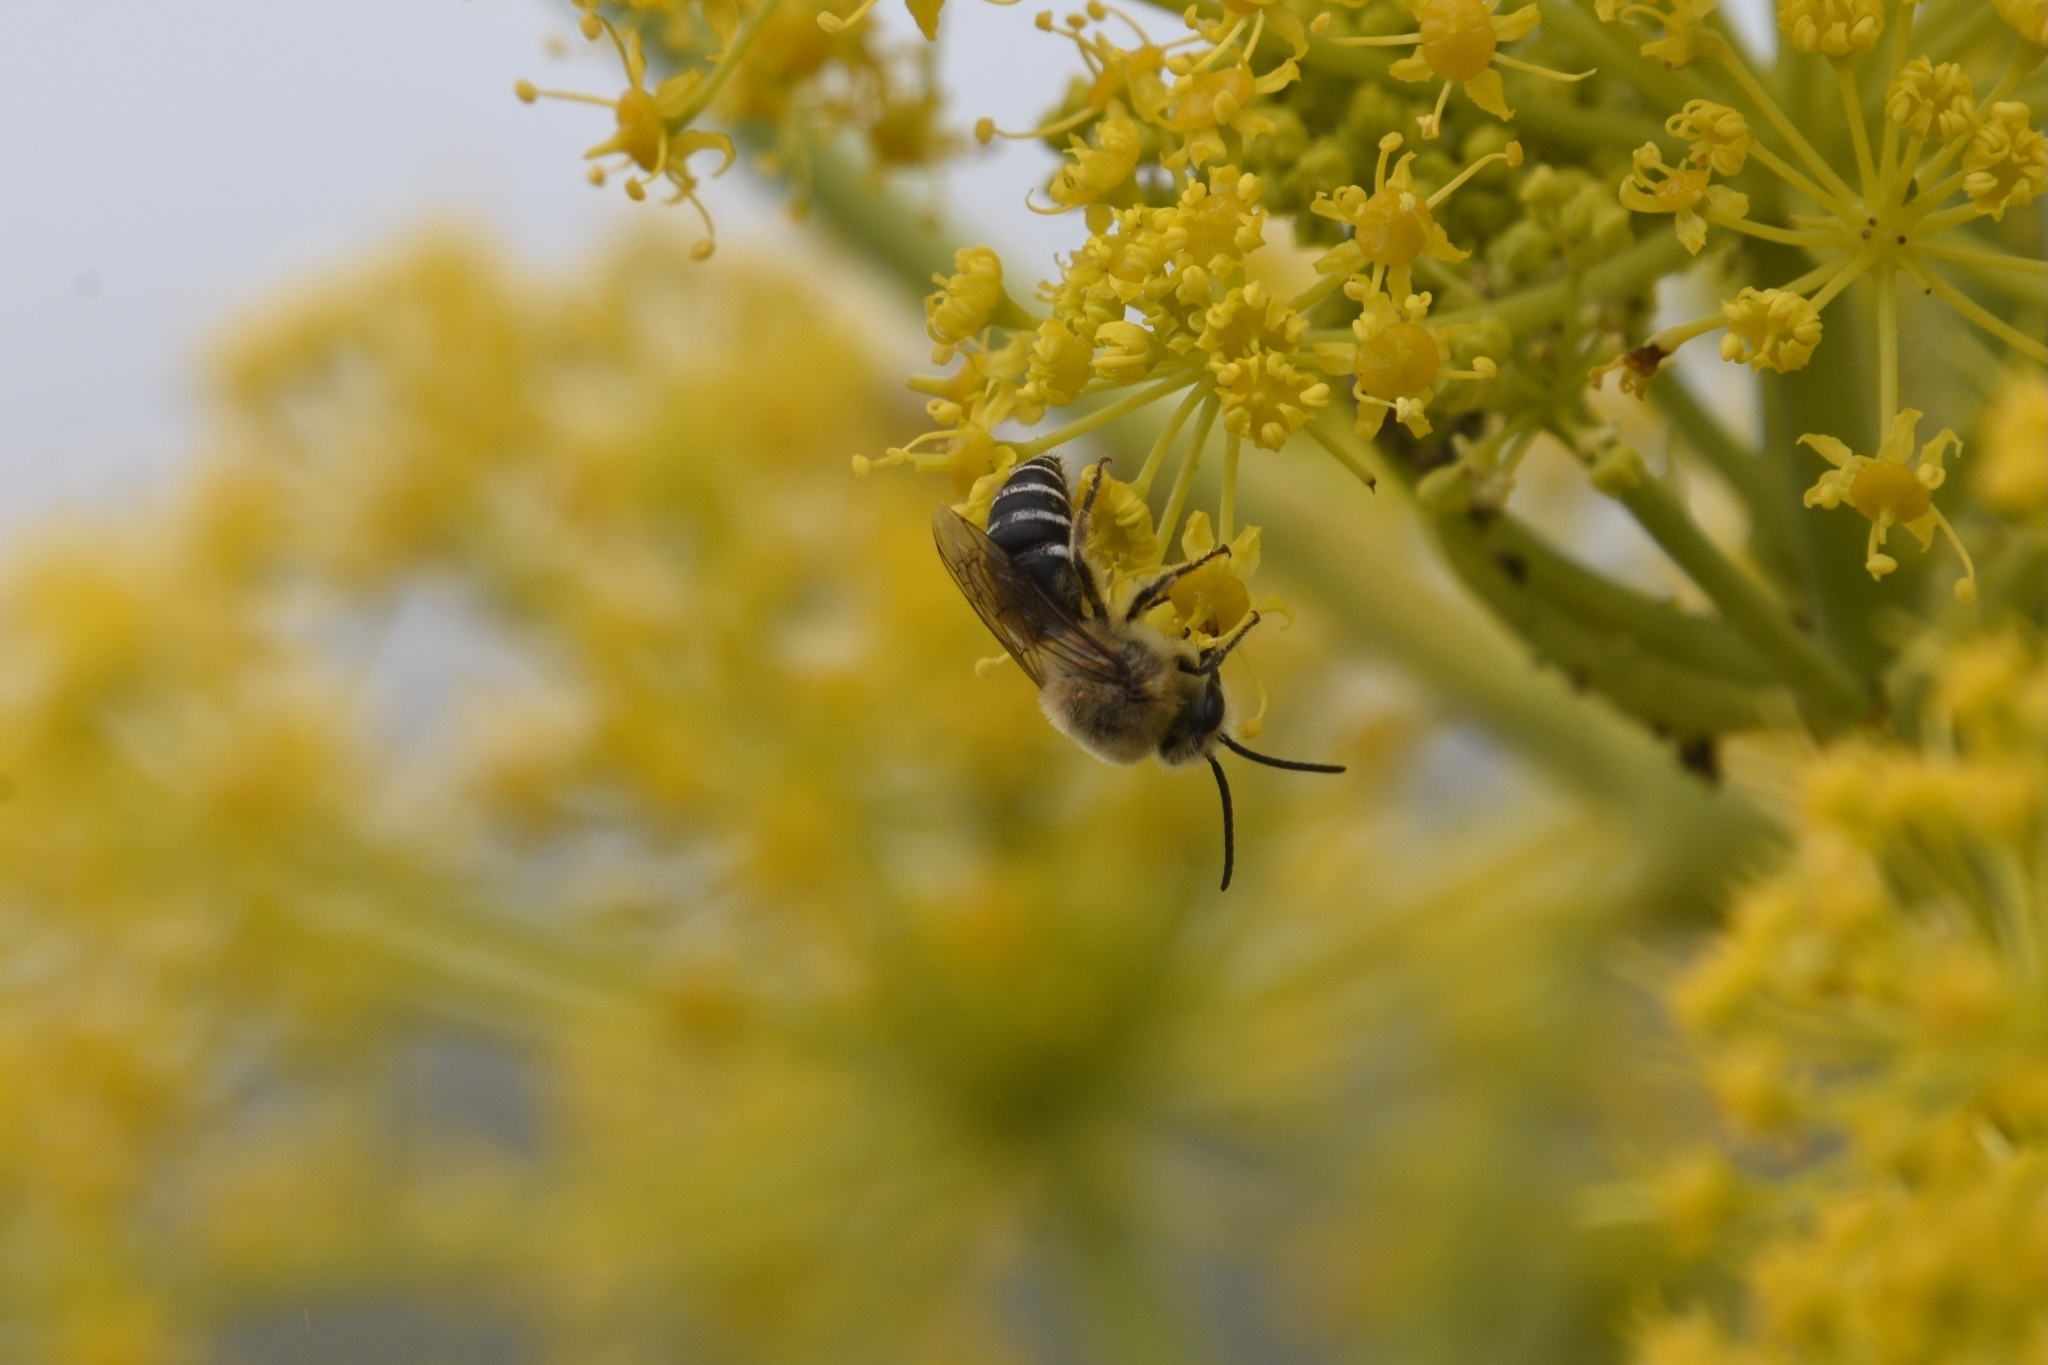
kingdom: Animalia
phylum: Arthropoda
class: Insecta
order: Hymenoptera
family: Colletidae
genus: Colletes
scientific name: Colletes dimidiatus
